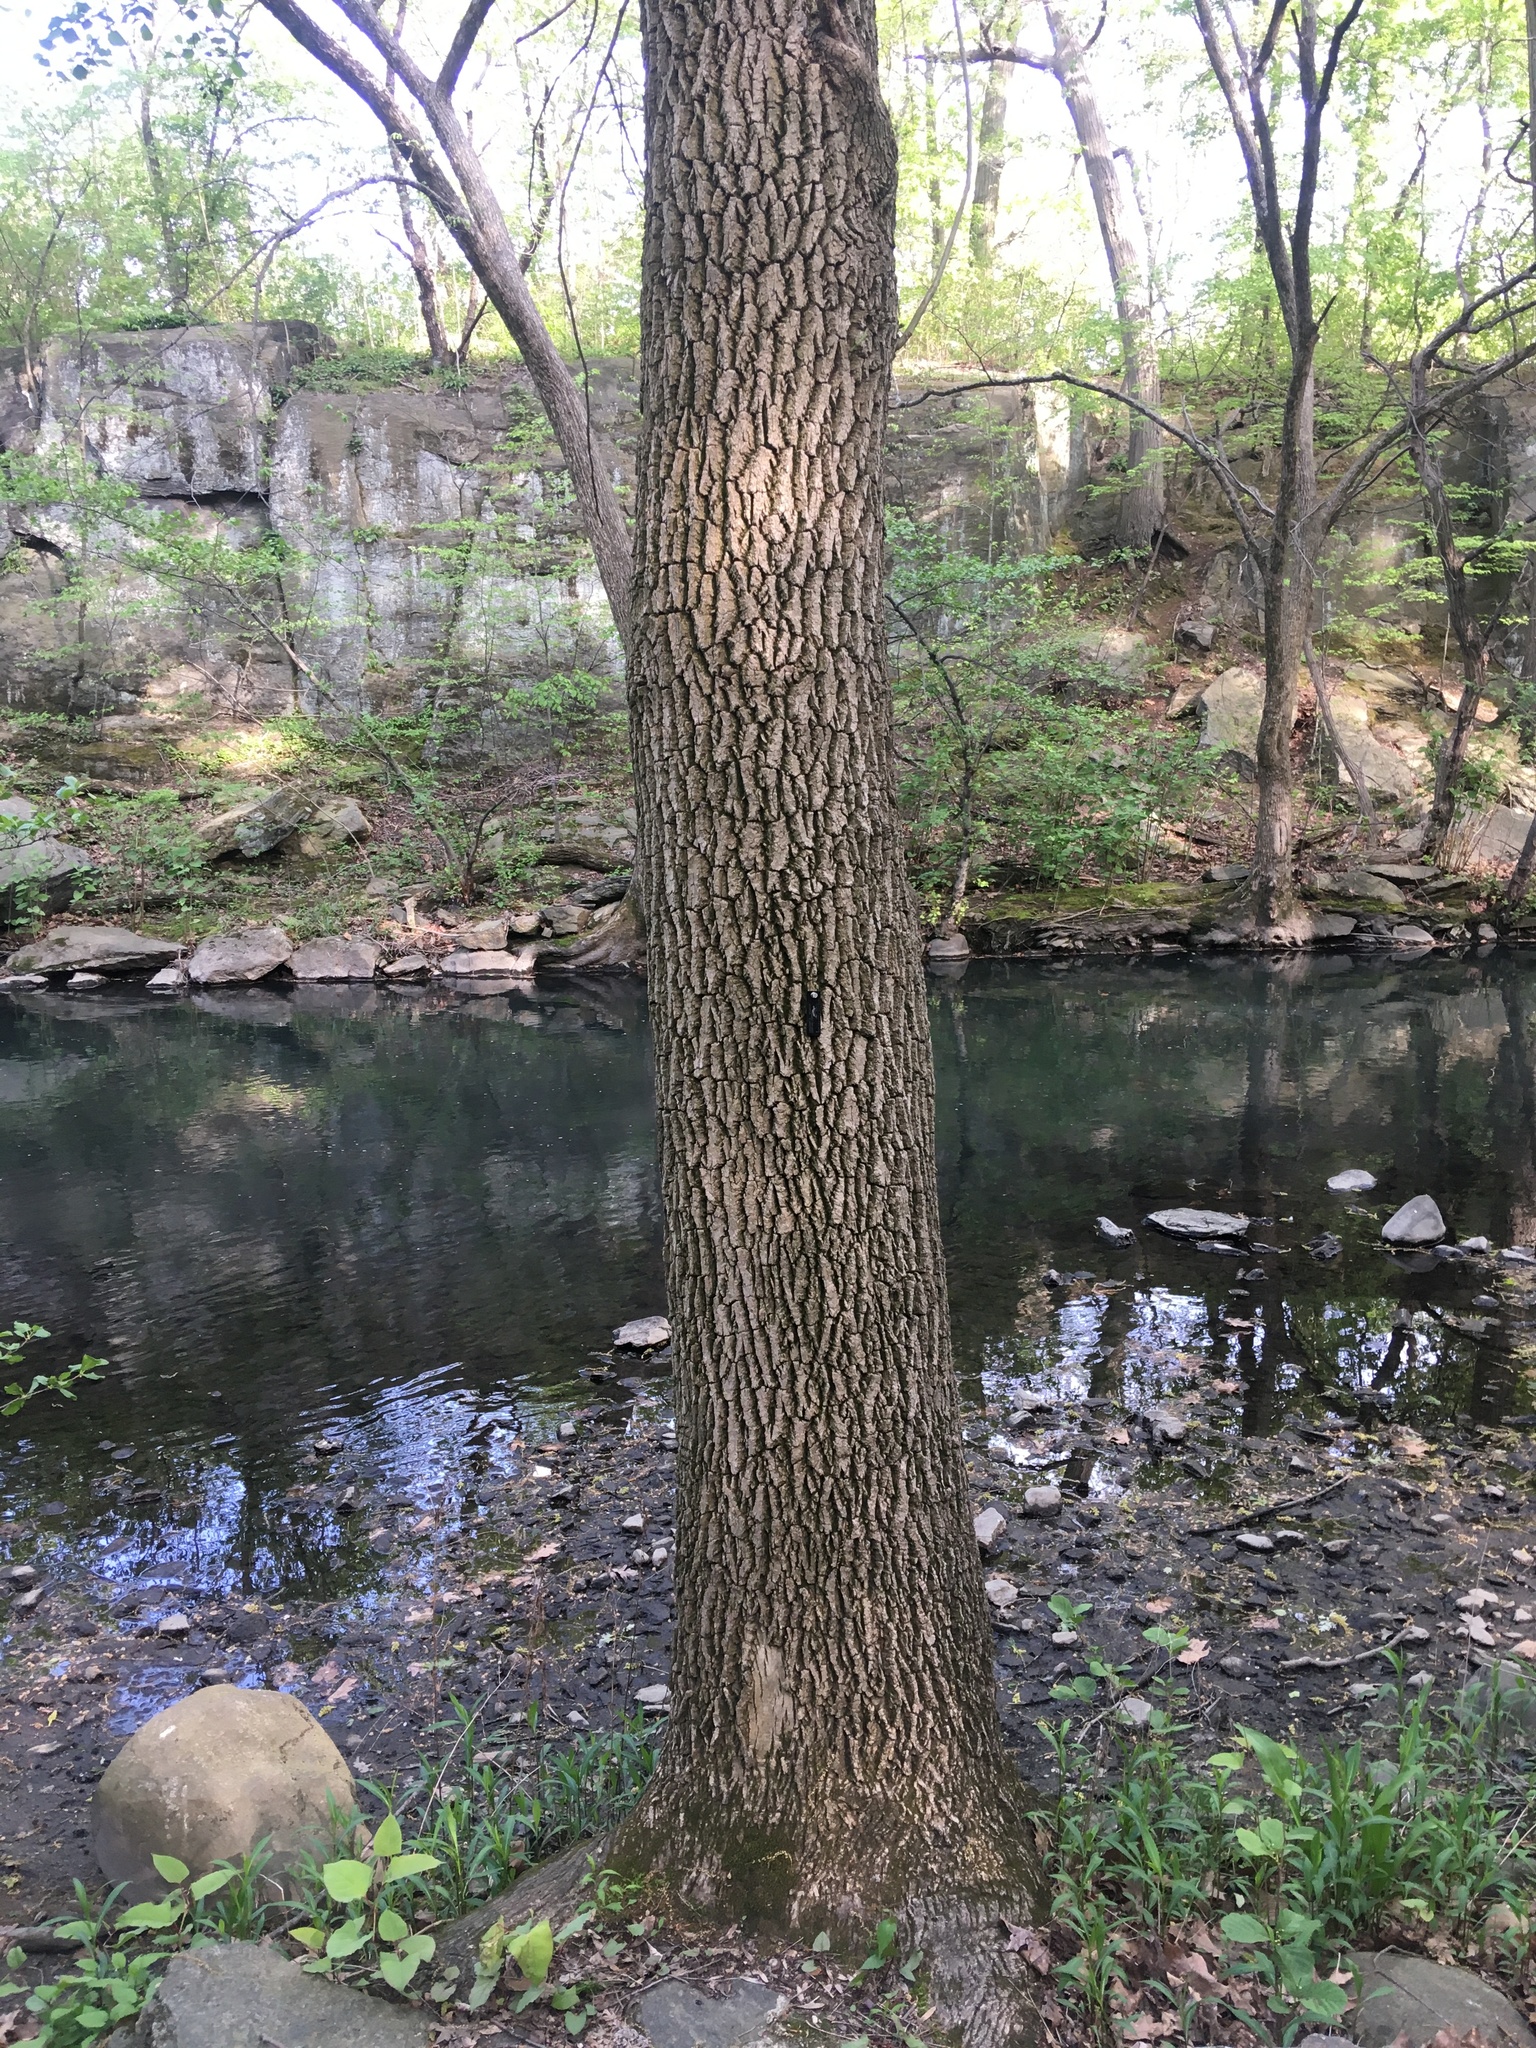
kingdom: Plantae
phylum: Tracheophyta
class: Magnoliopsida
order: Lamiales
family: Oleaceae
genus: Fraxinus
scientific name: Fraxinus profunda
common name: Pumpkin ash
